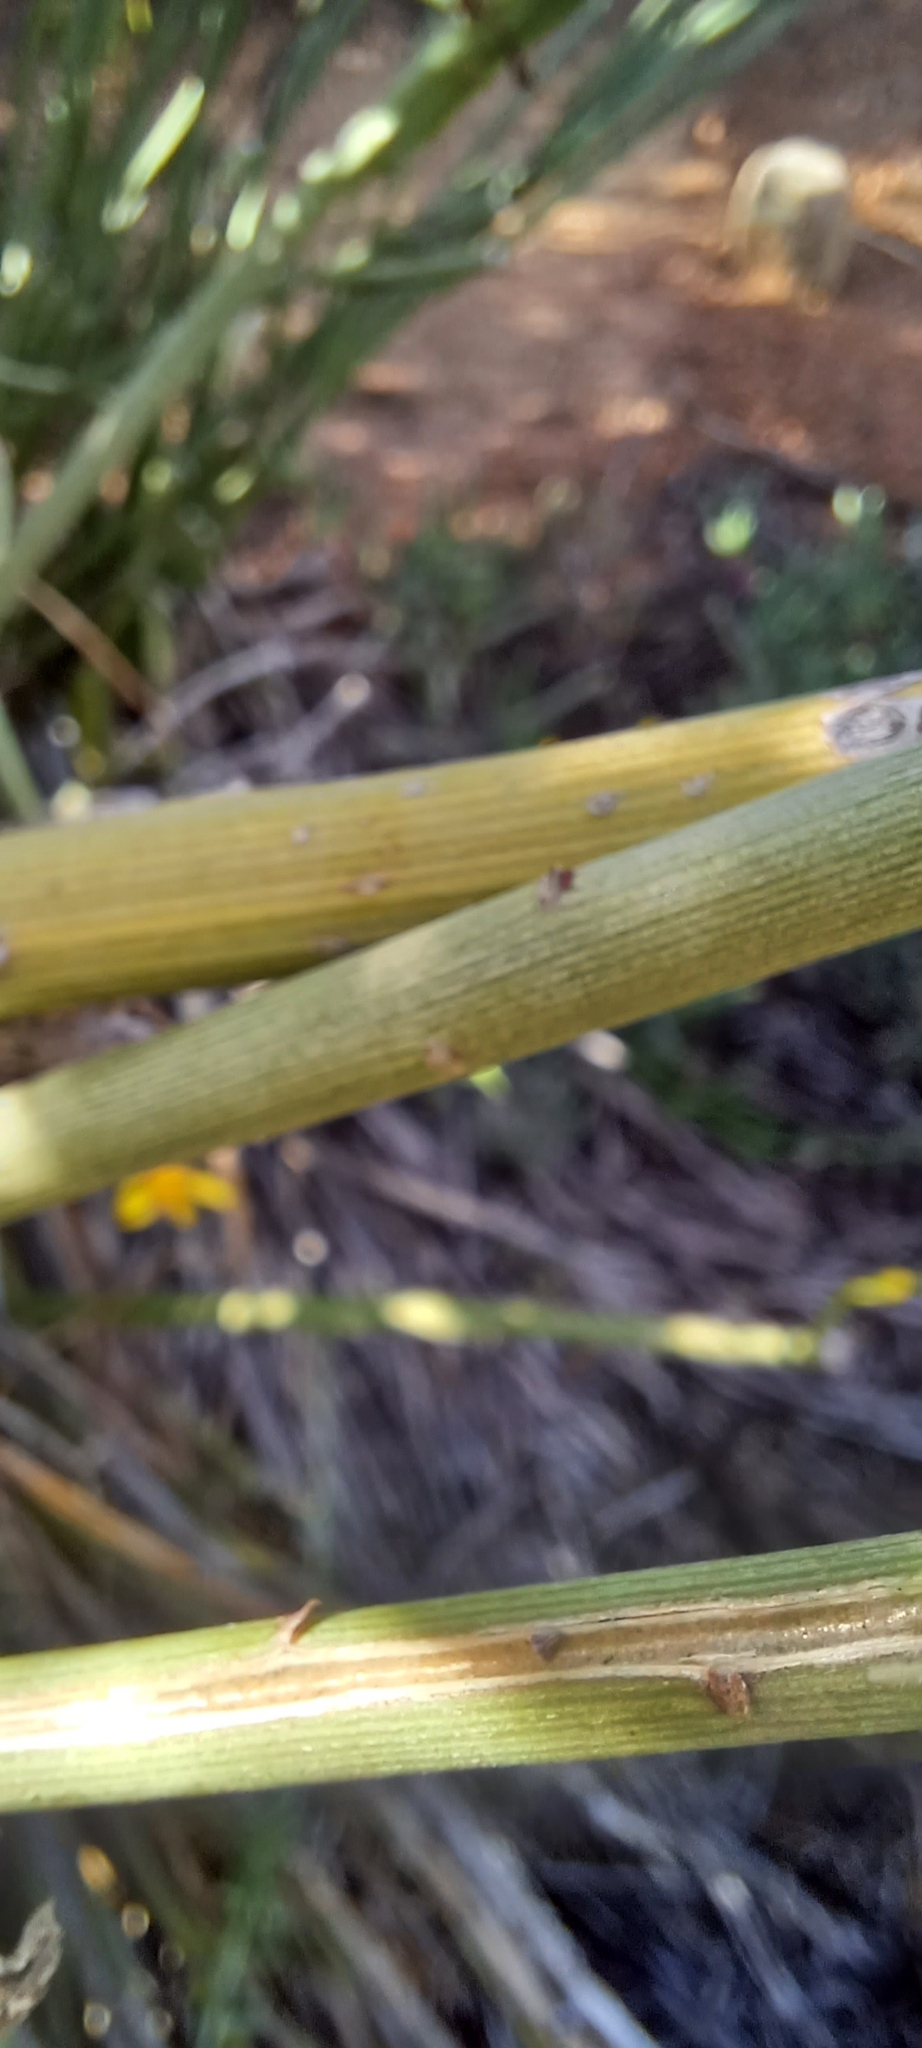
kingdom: Plantae
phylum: Tracheophyta
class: Magnoliopsida
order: Asterales
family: Asteraceae
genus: Senecio
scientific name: Senecio junceus
